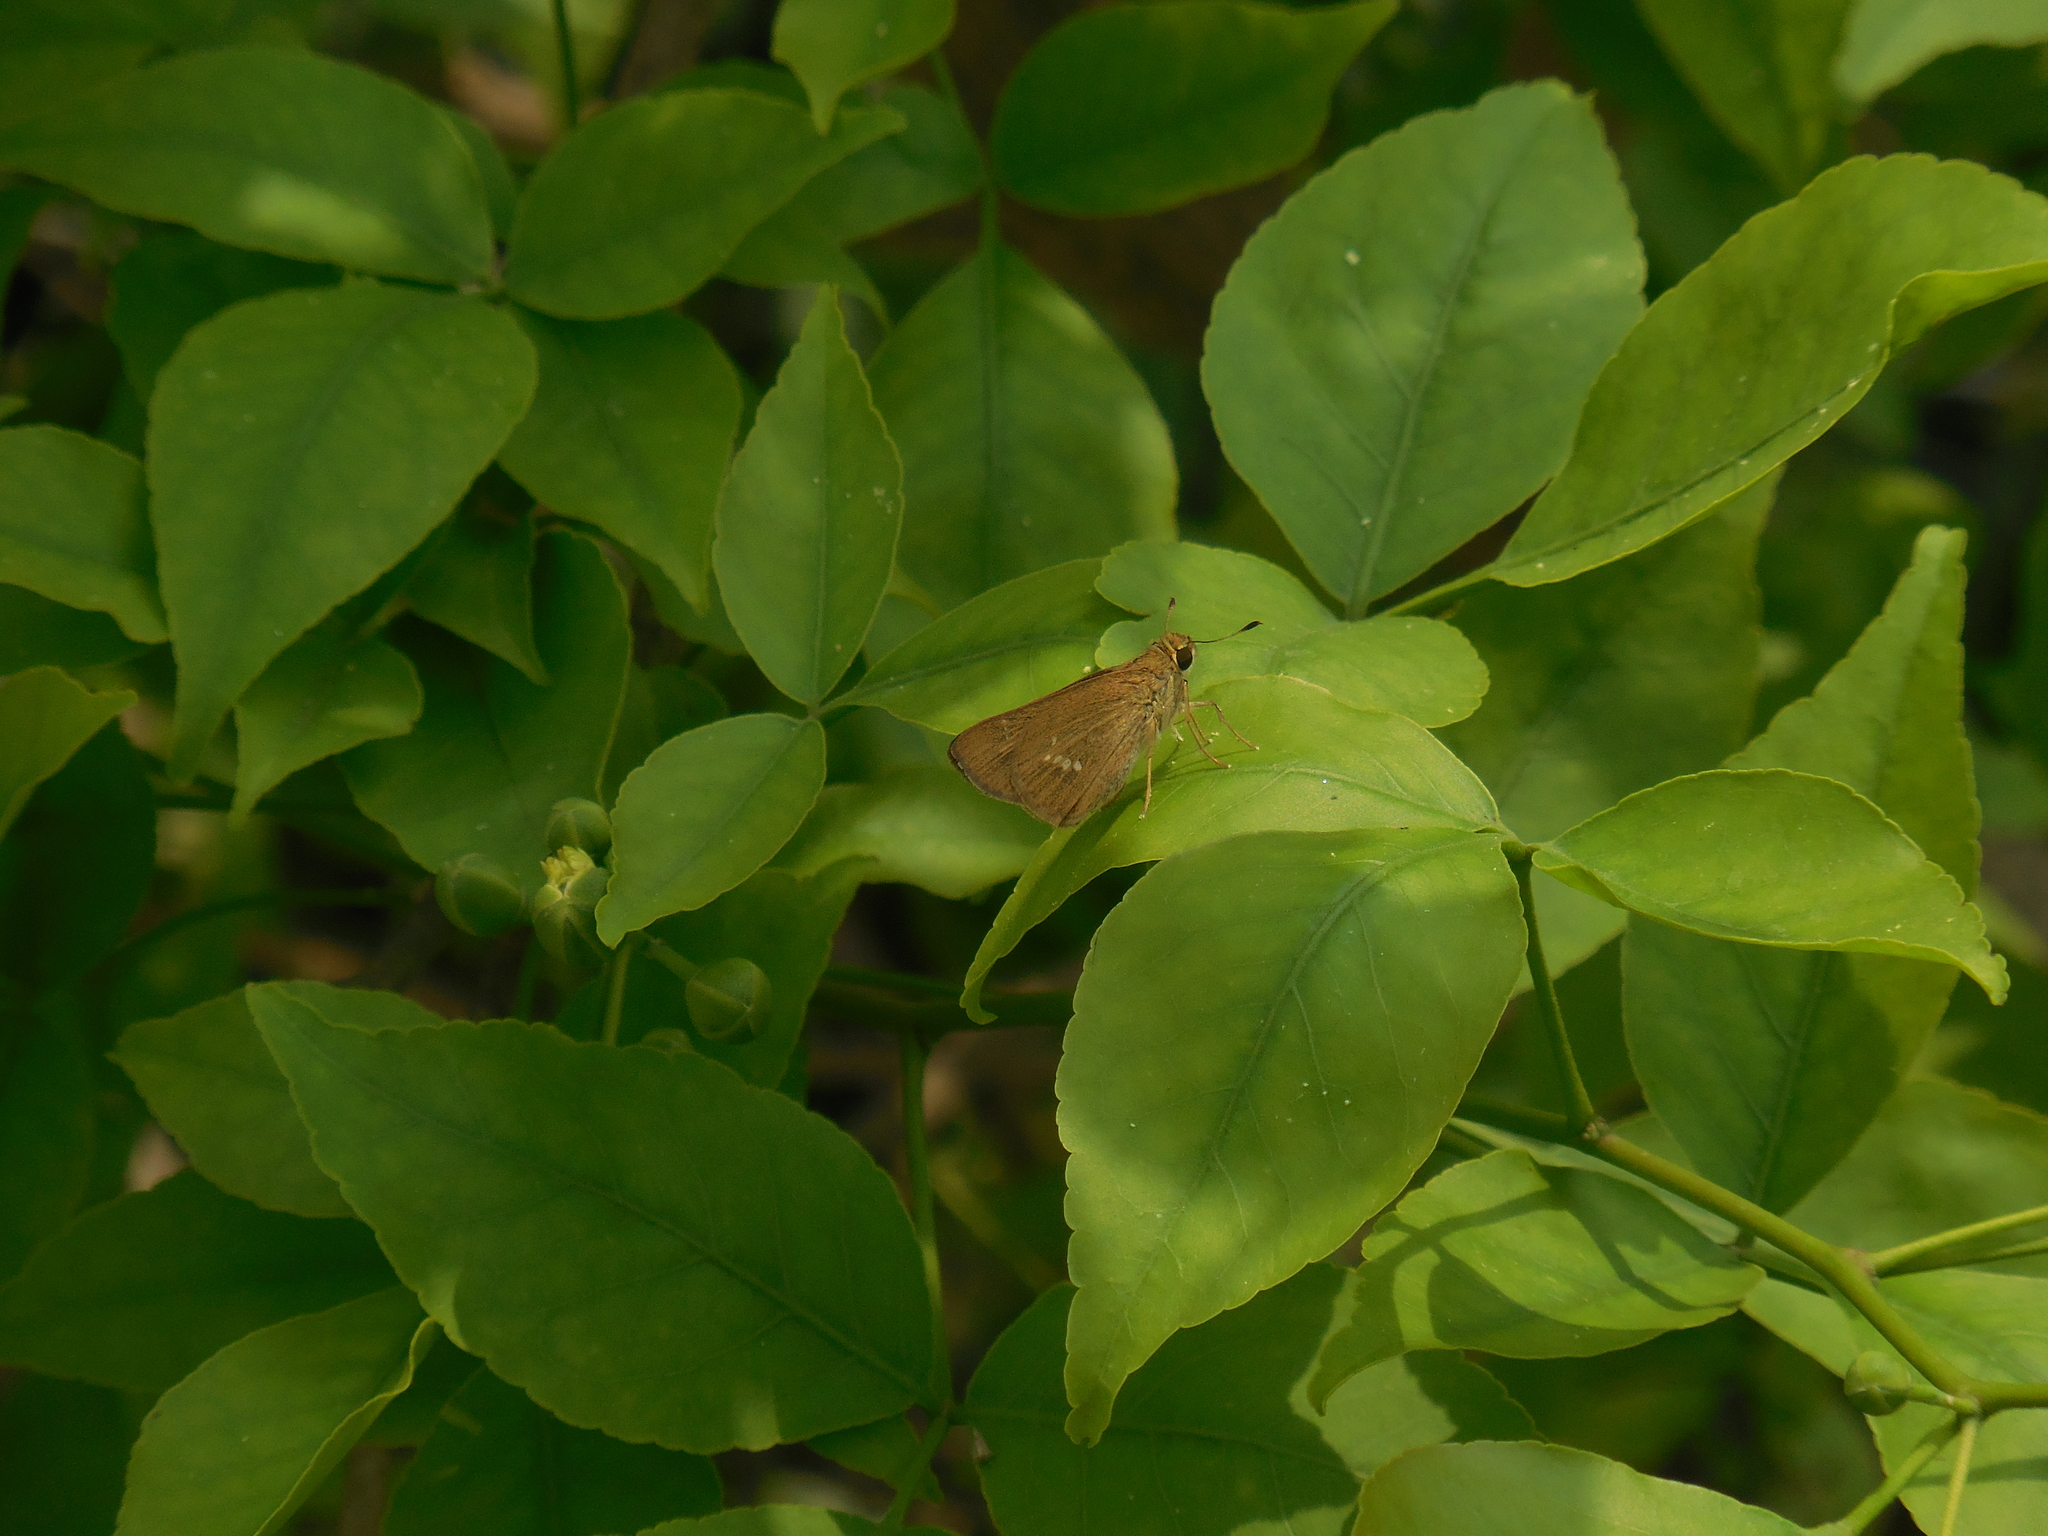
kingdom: Animalia
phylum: Arthropoda
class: Insecta
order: Lepidoptera
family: Hesperiidae
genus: Parnara
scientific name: Parnara guttatus
